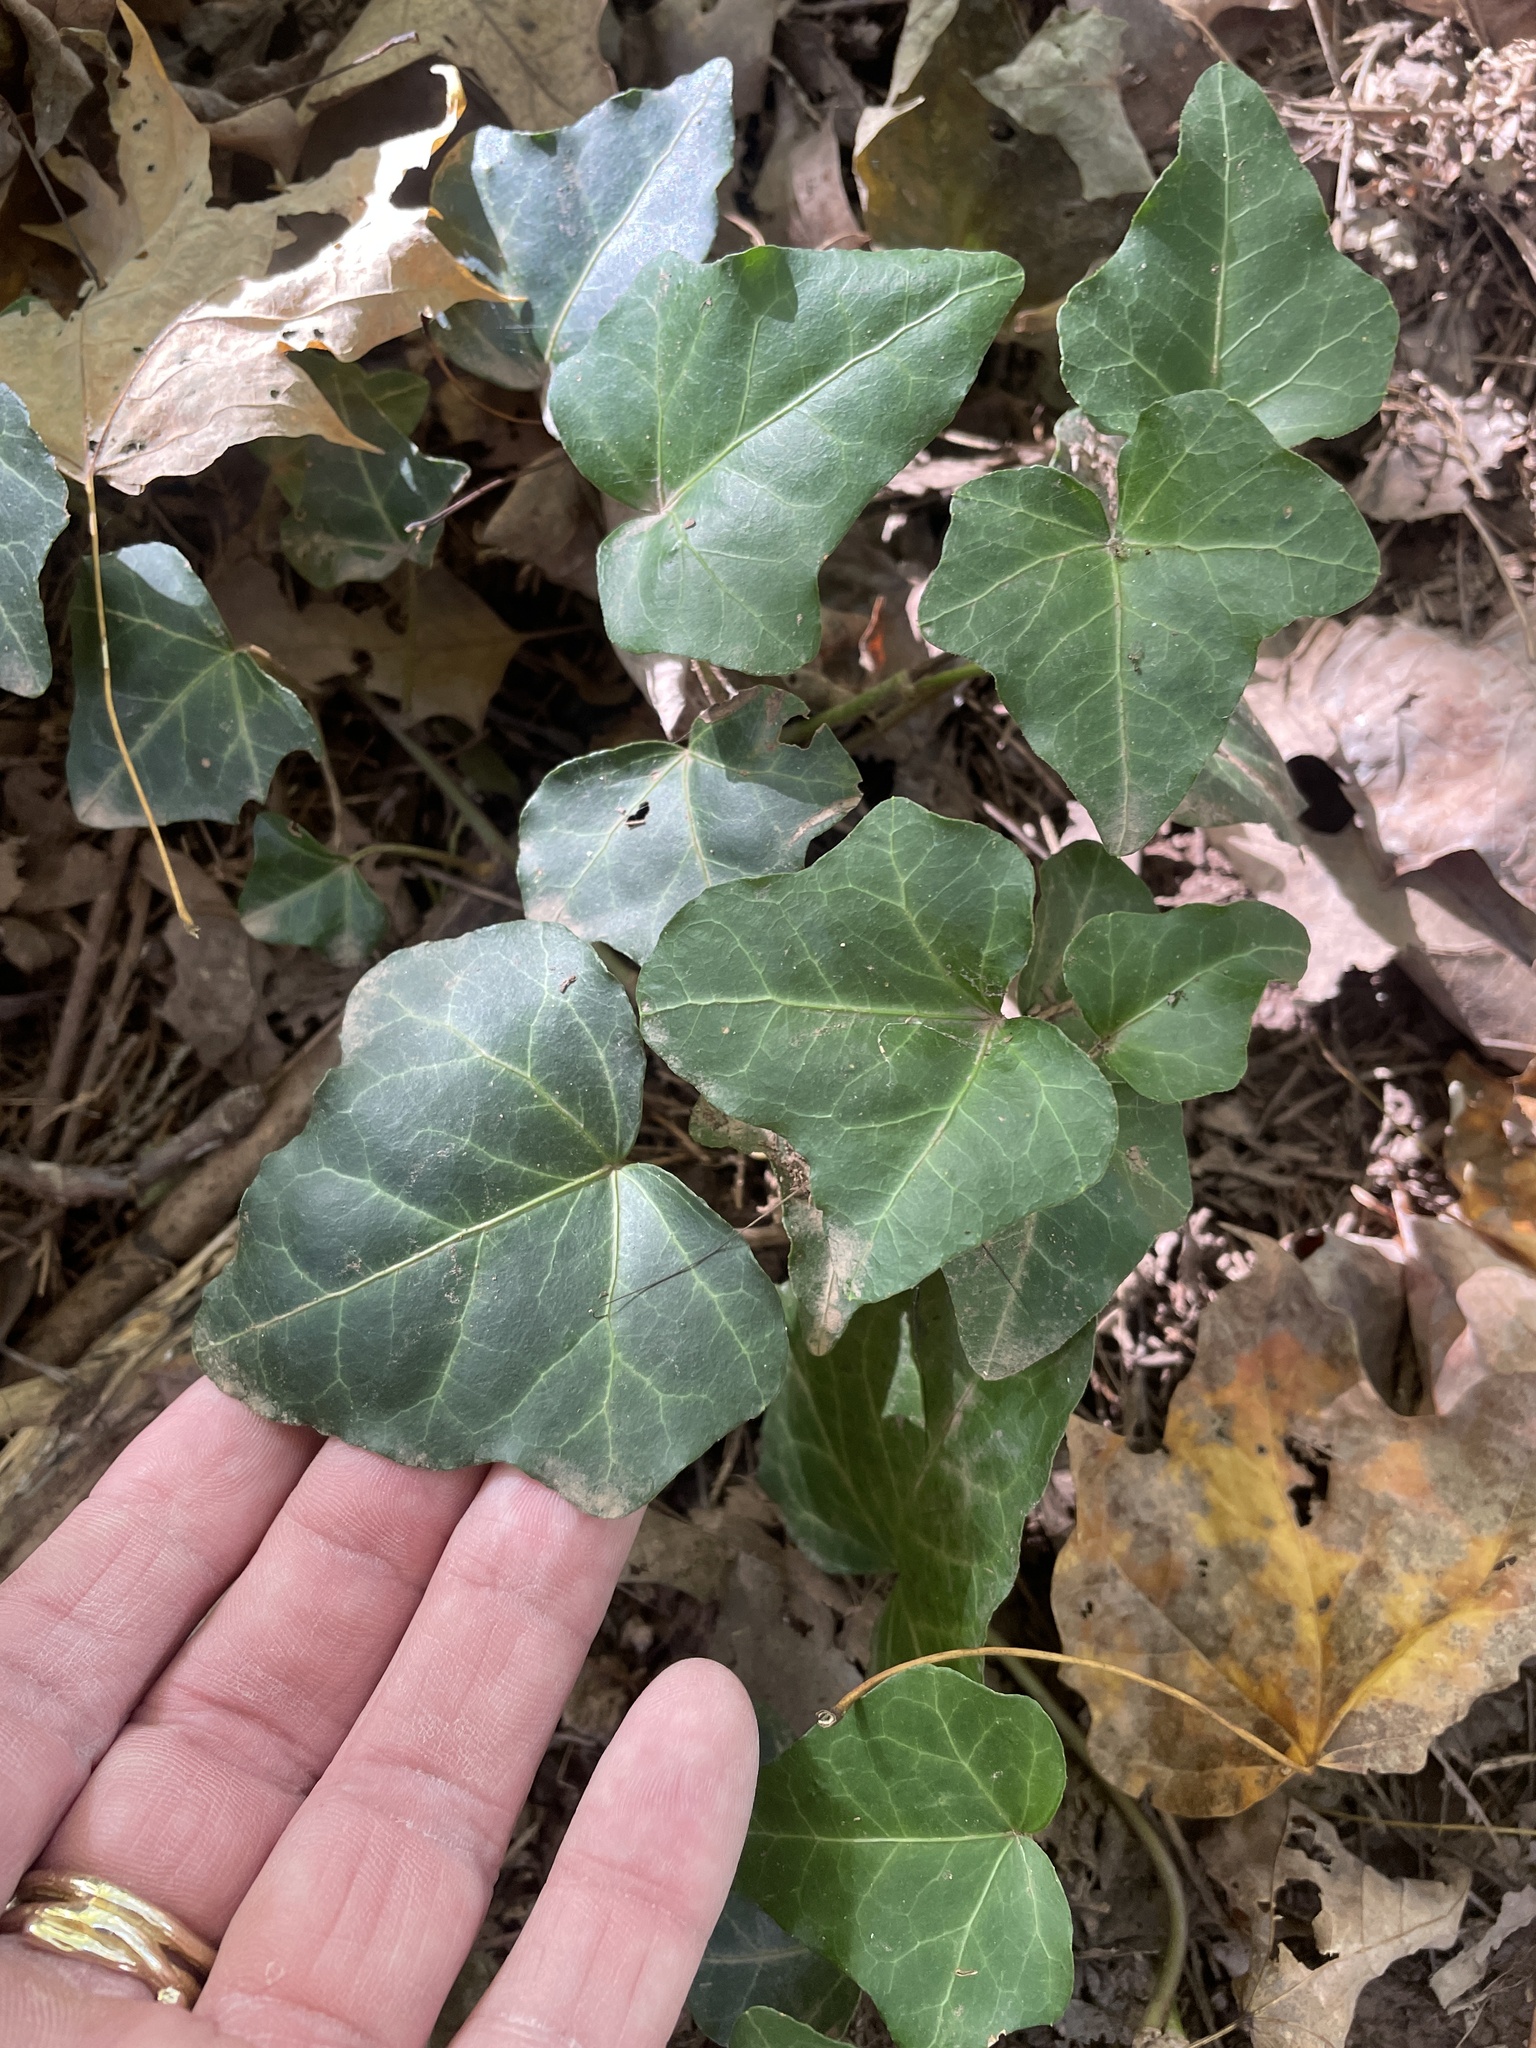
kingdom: Plantae
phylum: Tracheophyta
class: Magnoliopsida
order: Apiales
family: Araliaceae
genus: Hedera
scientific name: Hedera helix
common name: Ivy
